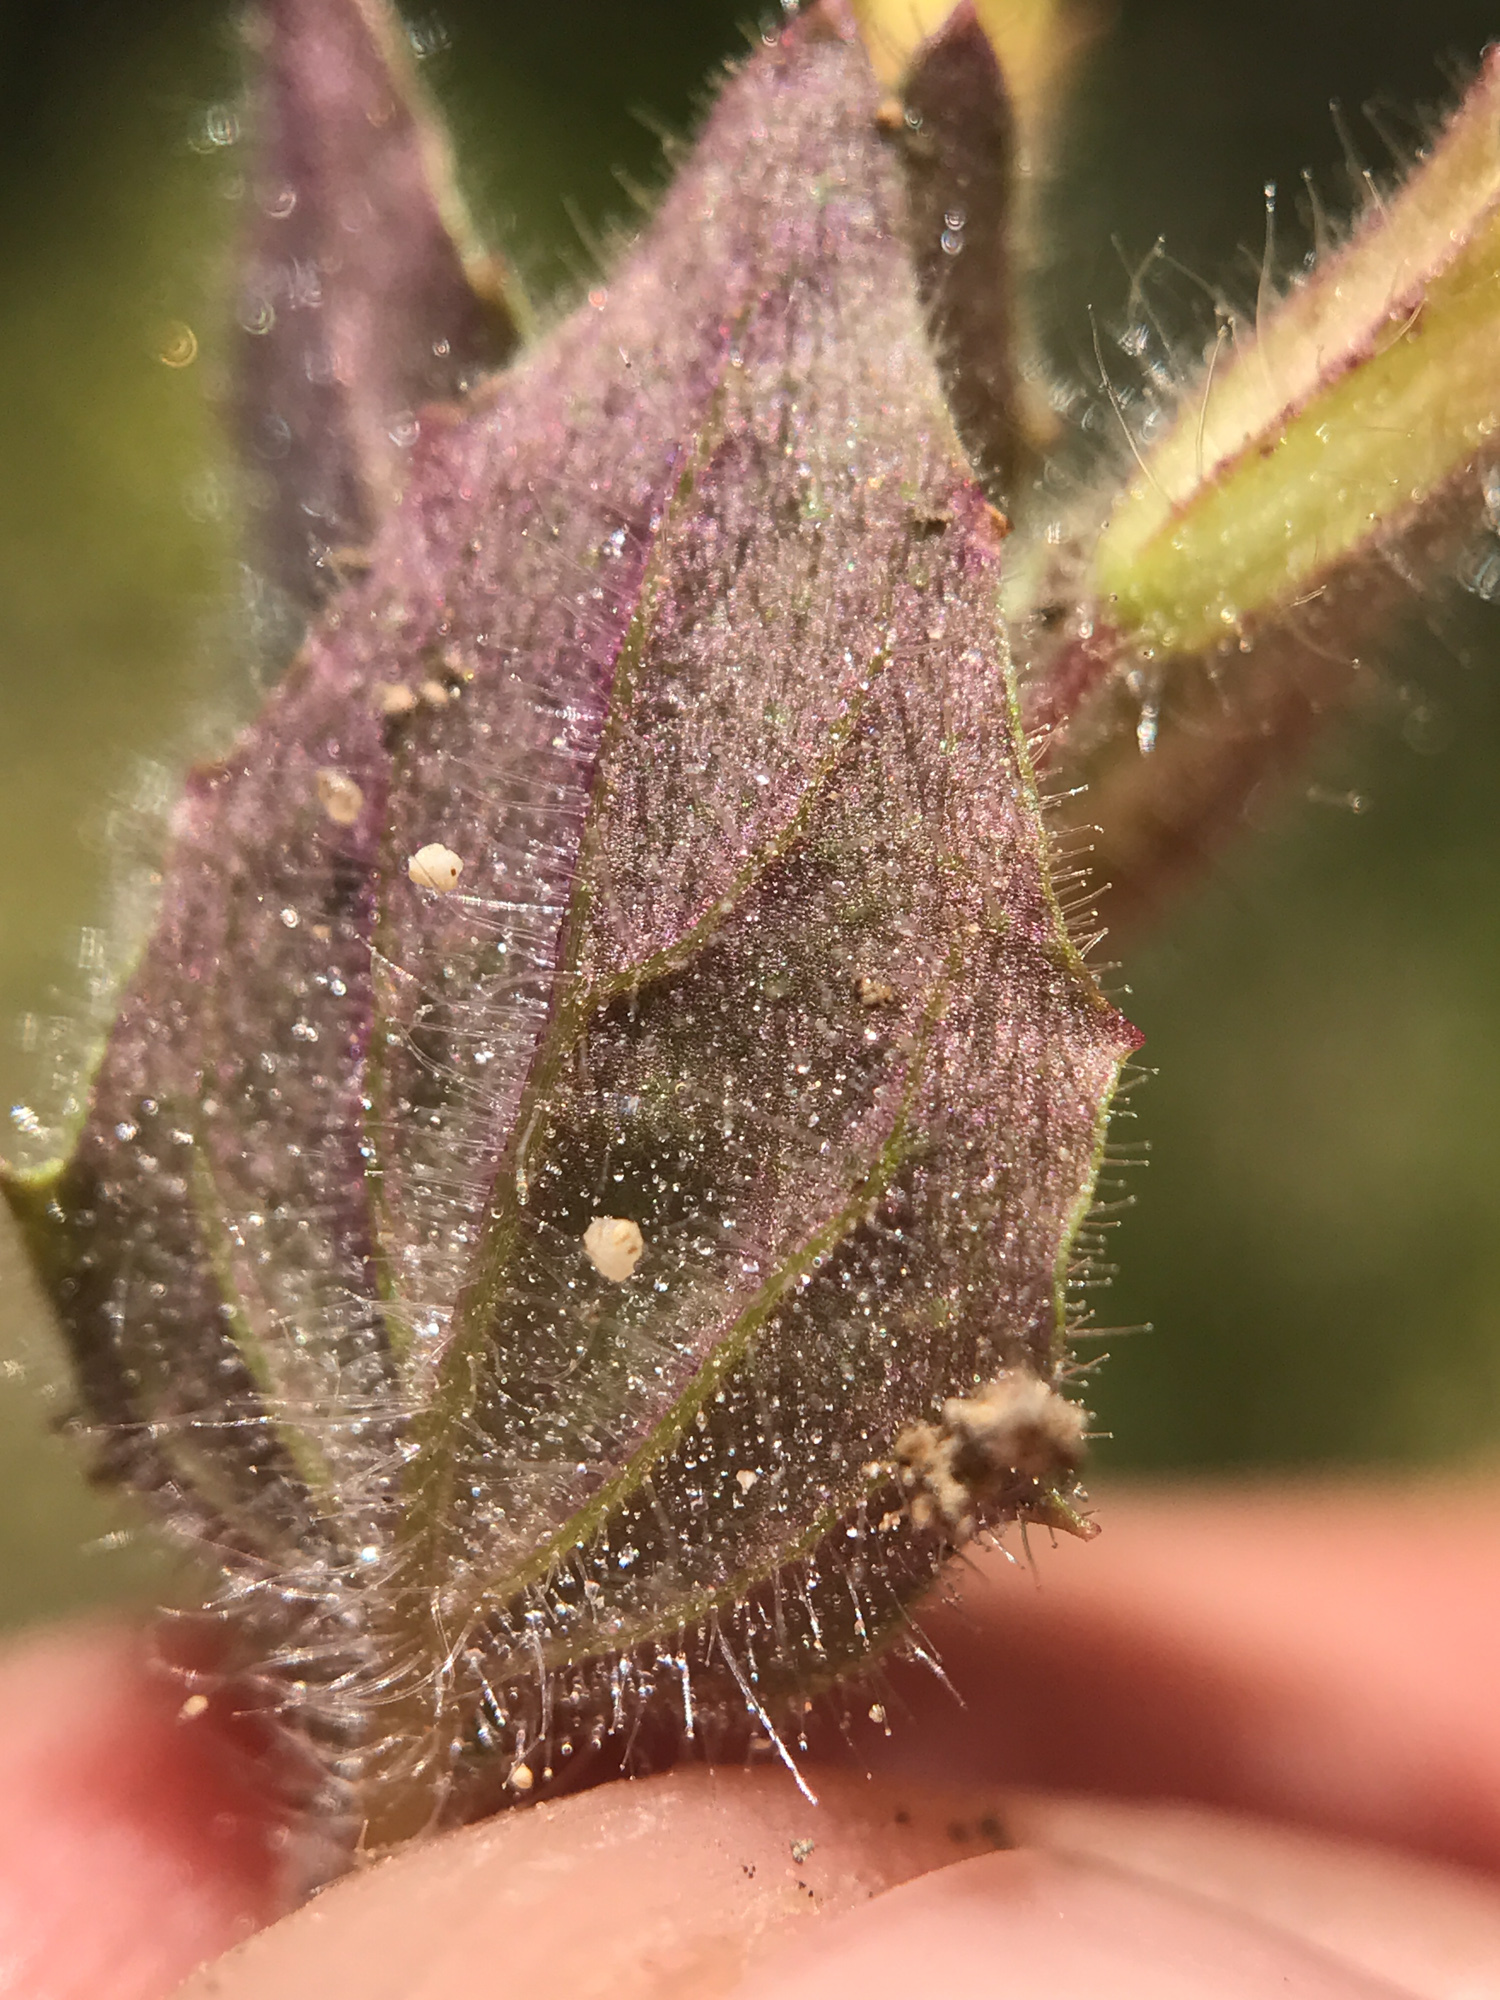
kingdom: Plantae
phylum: Tracheophyta
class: Magnoliopsida
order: Lamiales
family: Phrymaceae
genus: Erythranthe
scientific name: Erythranthe floribunda
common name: Floriferous monkeyflower
